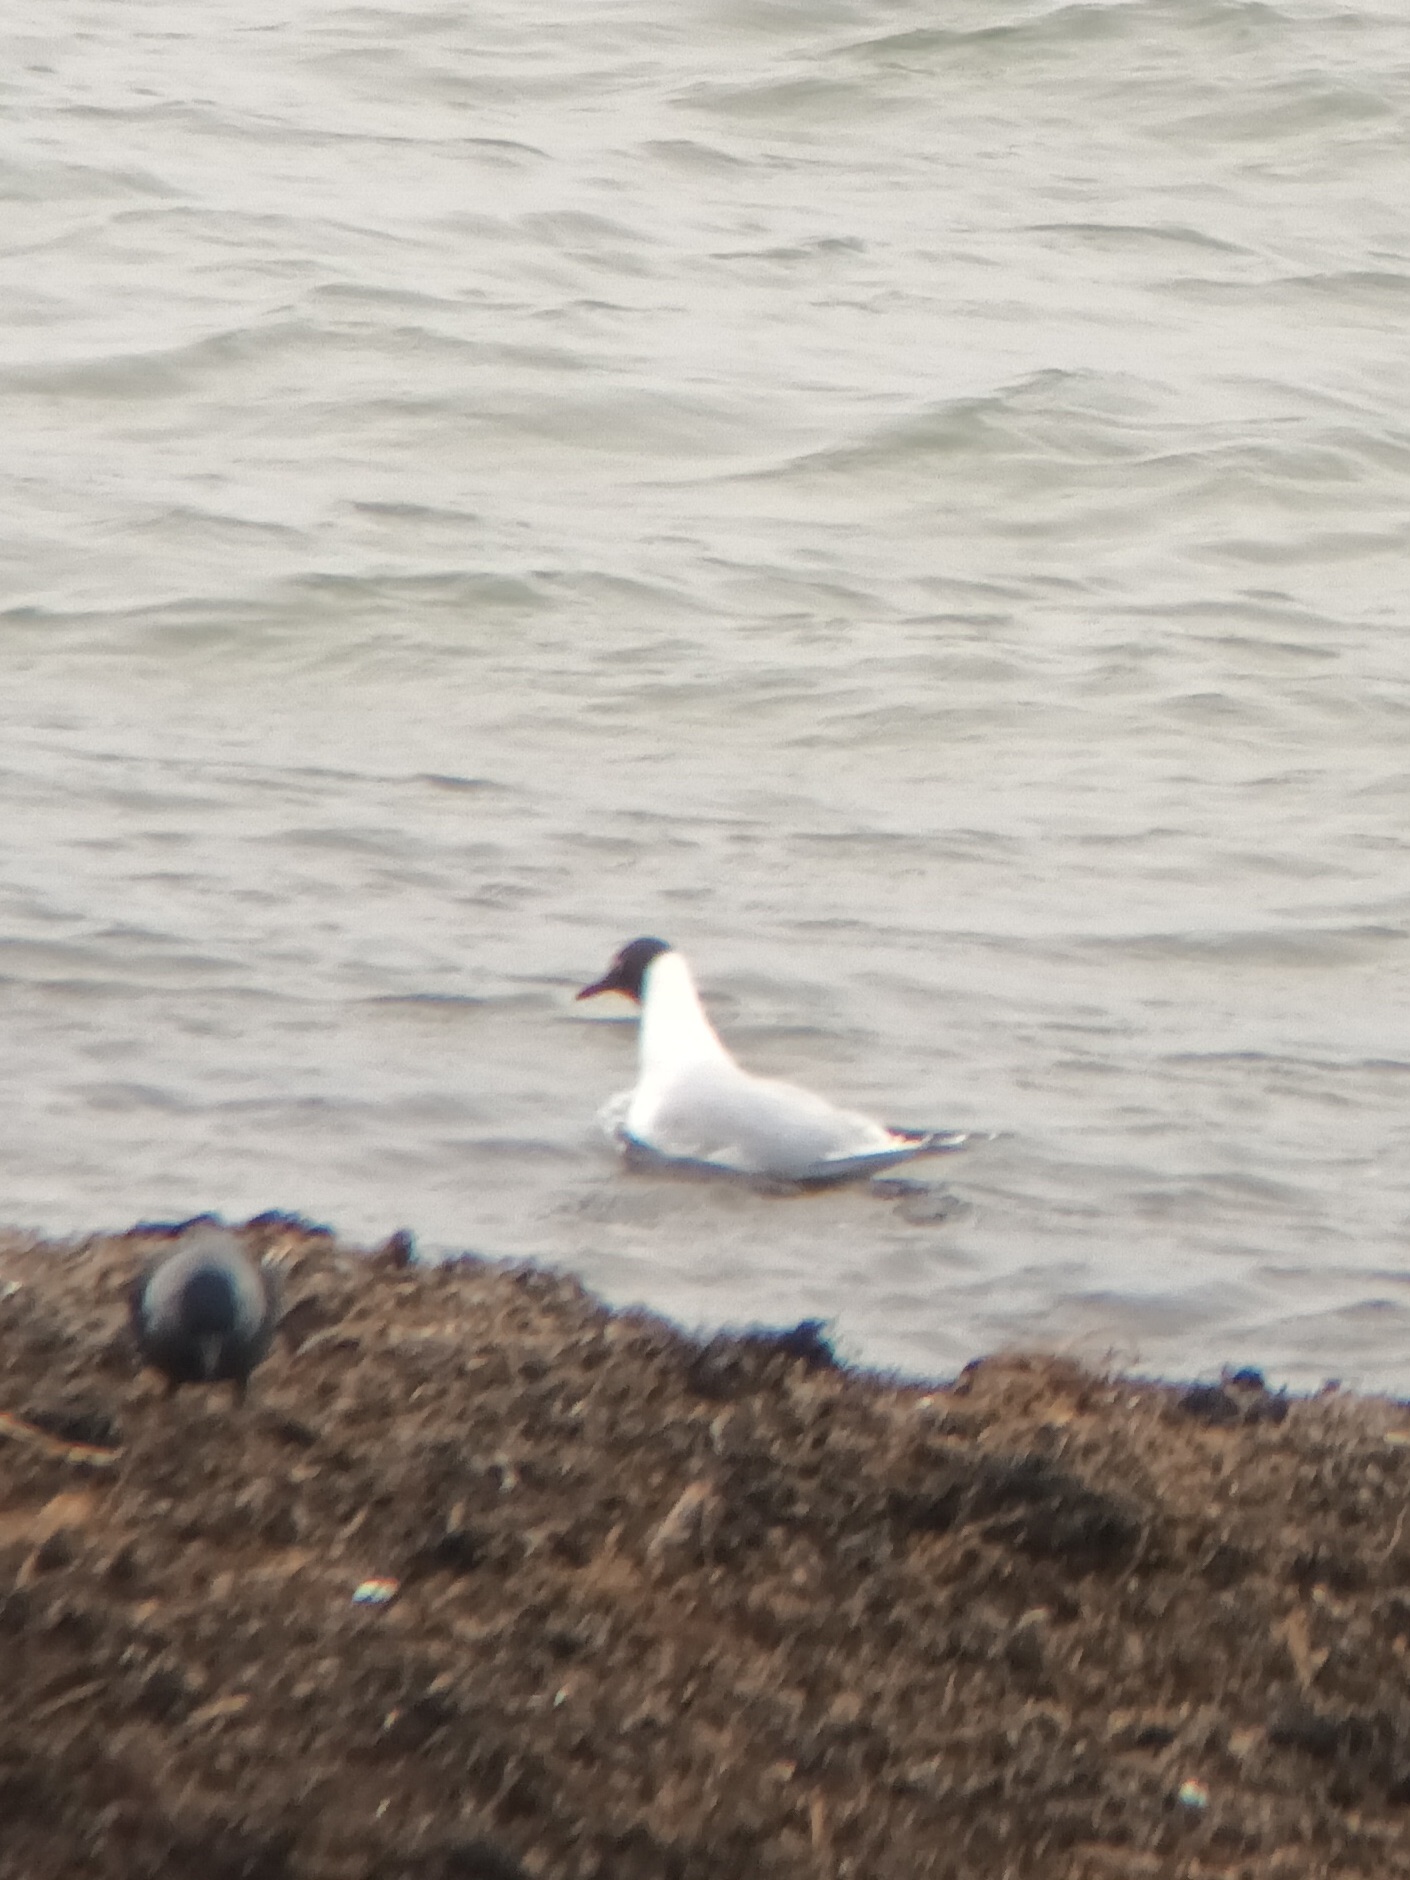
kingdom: Animalia
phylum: Chordata
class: Aves
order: Charadriiformes
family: Laridae
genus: Chroicocephalus
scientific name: Chroicocephalus ridibundus
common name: Black-headed gull
